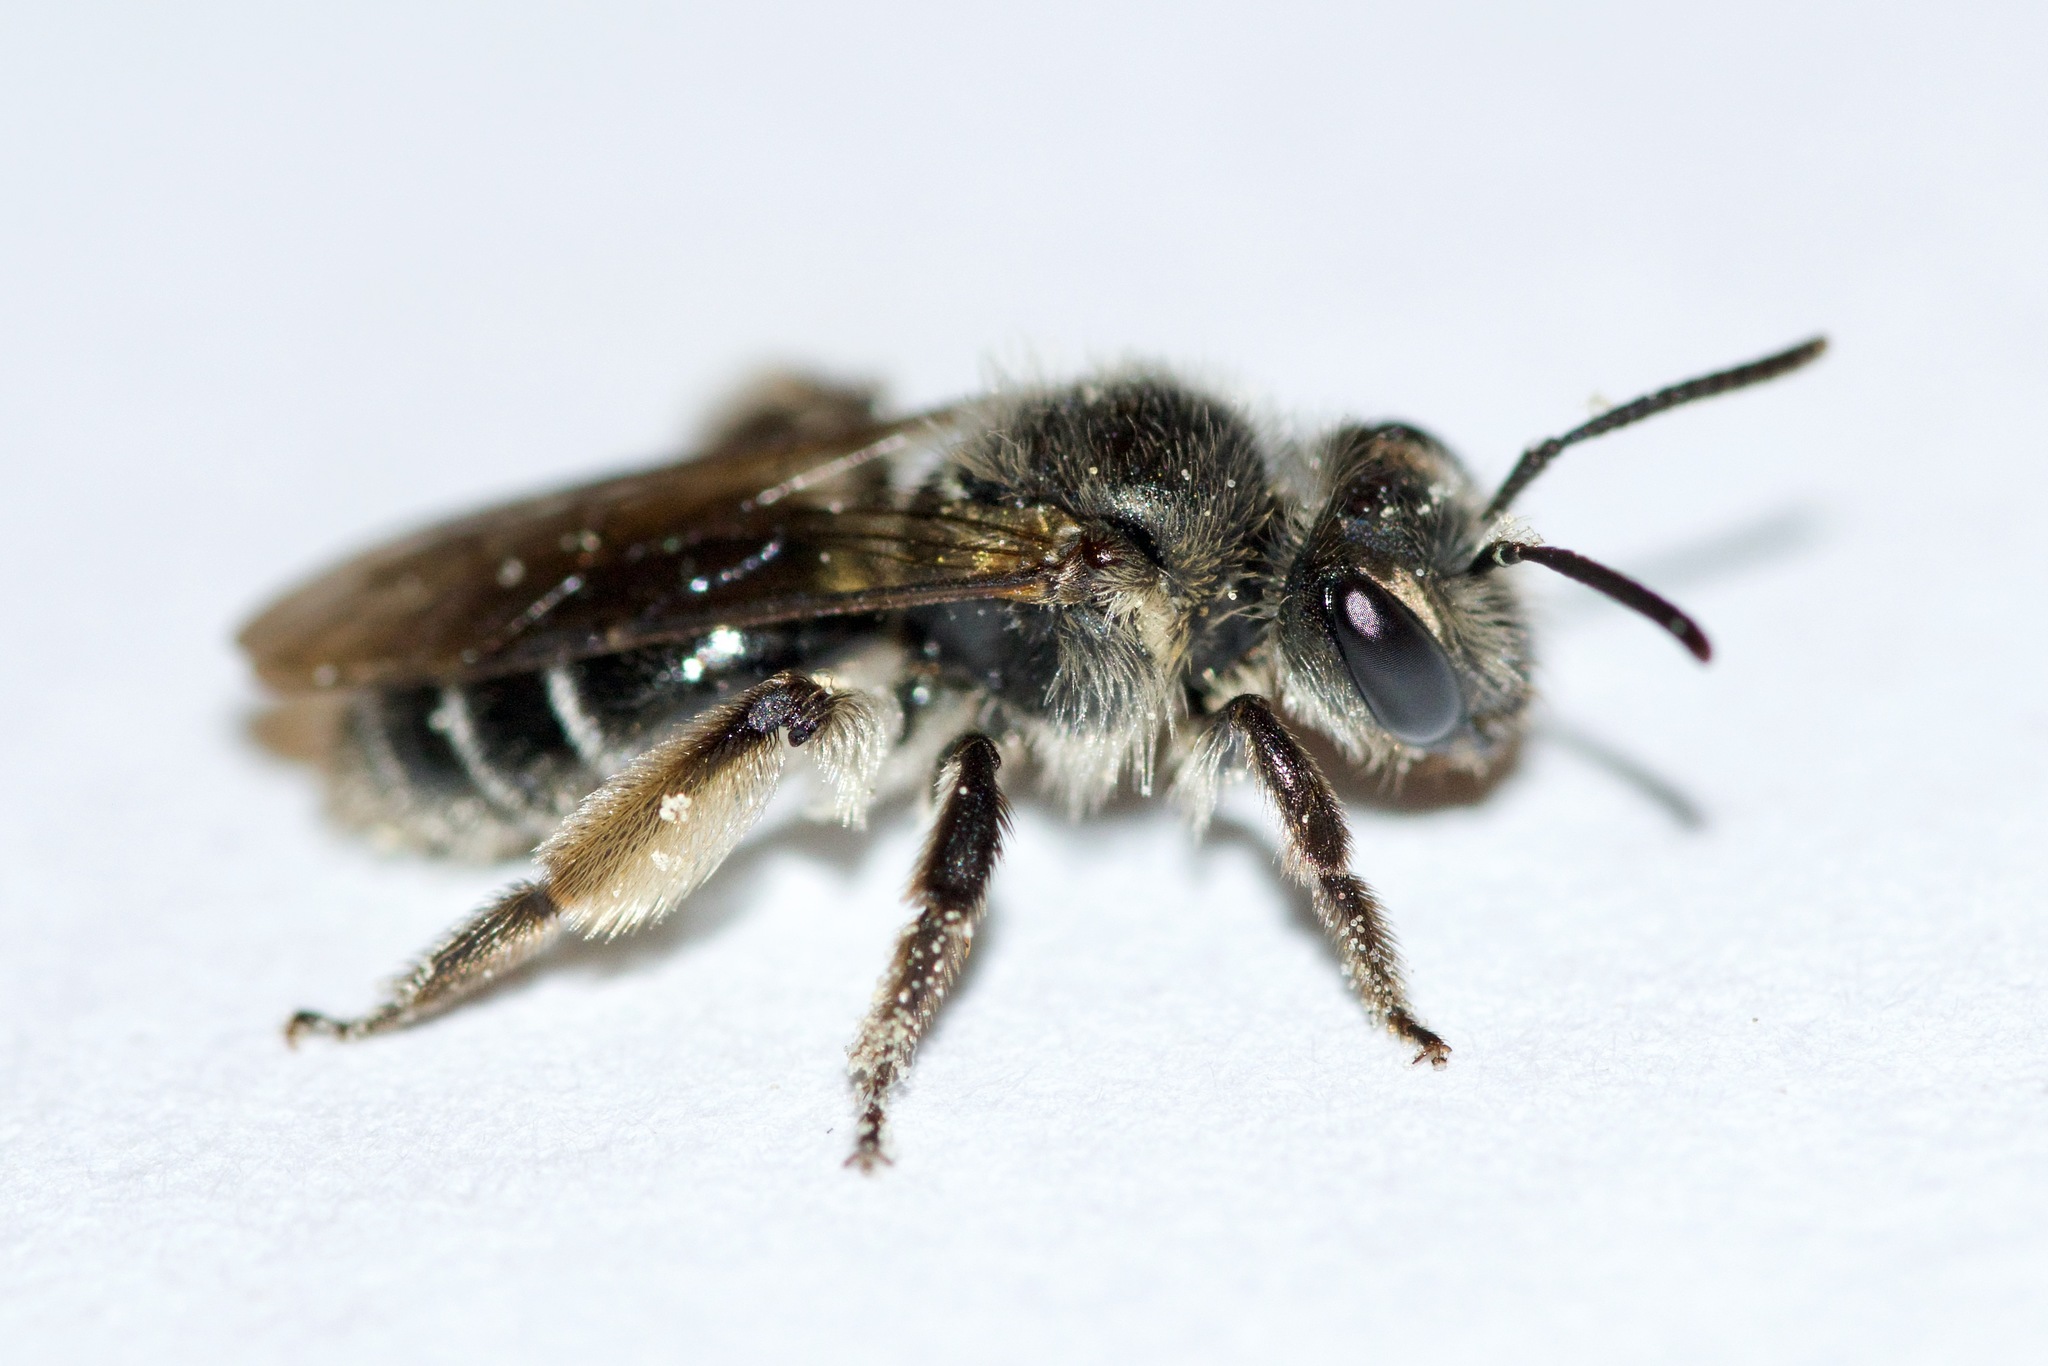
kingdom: Animalia
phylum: Arthropoda
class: Insecta
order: Hymenoptera
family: Andrenidae
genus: Andrena
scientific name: Andrena geranii
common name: Waterleaf mining bee
